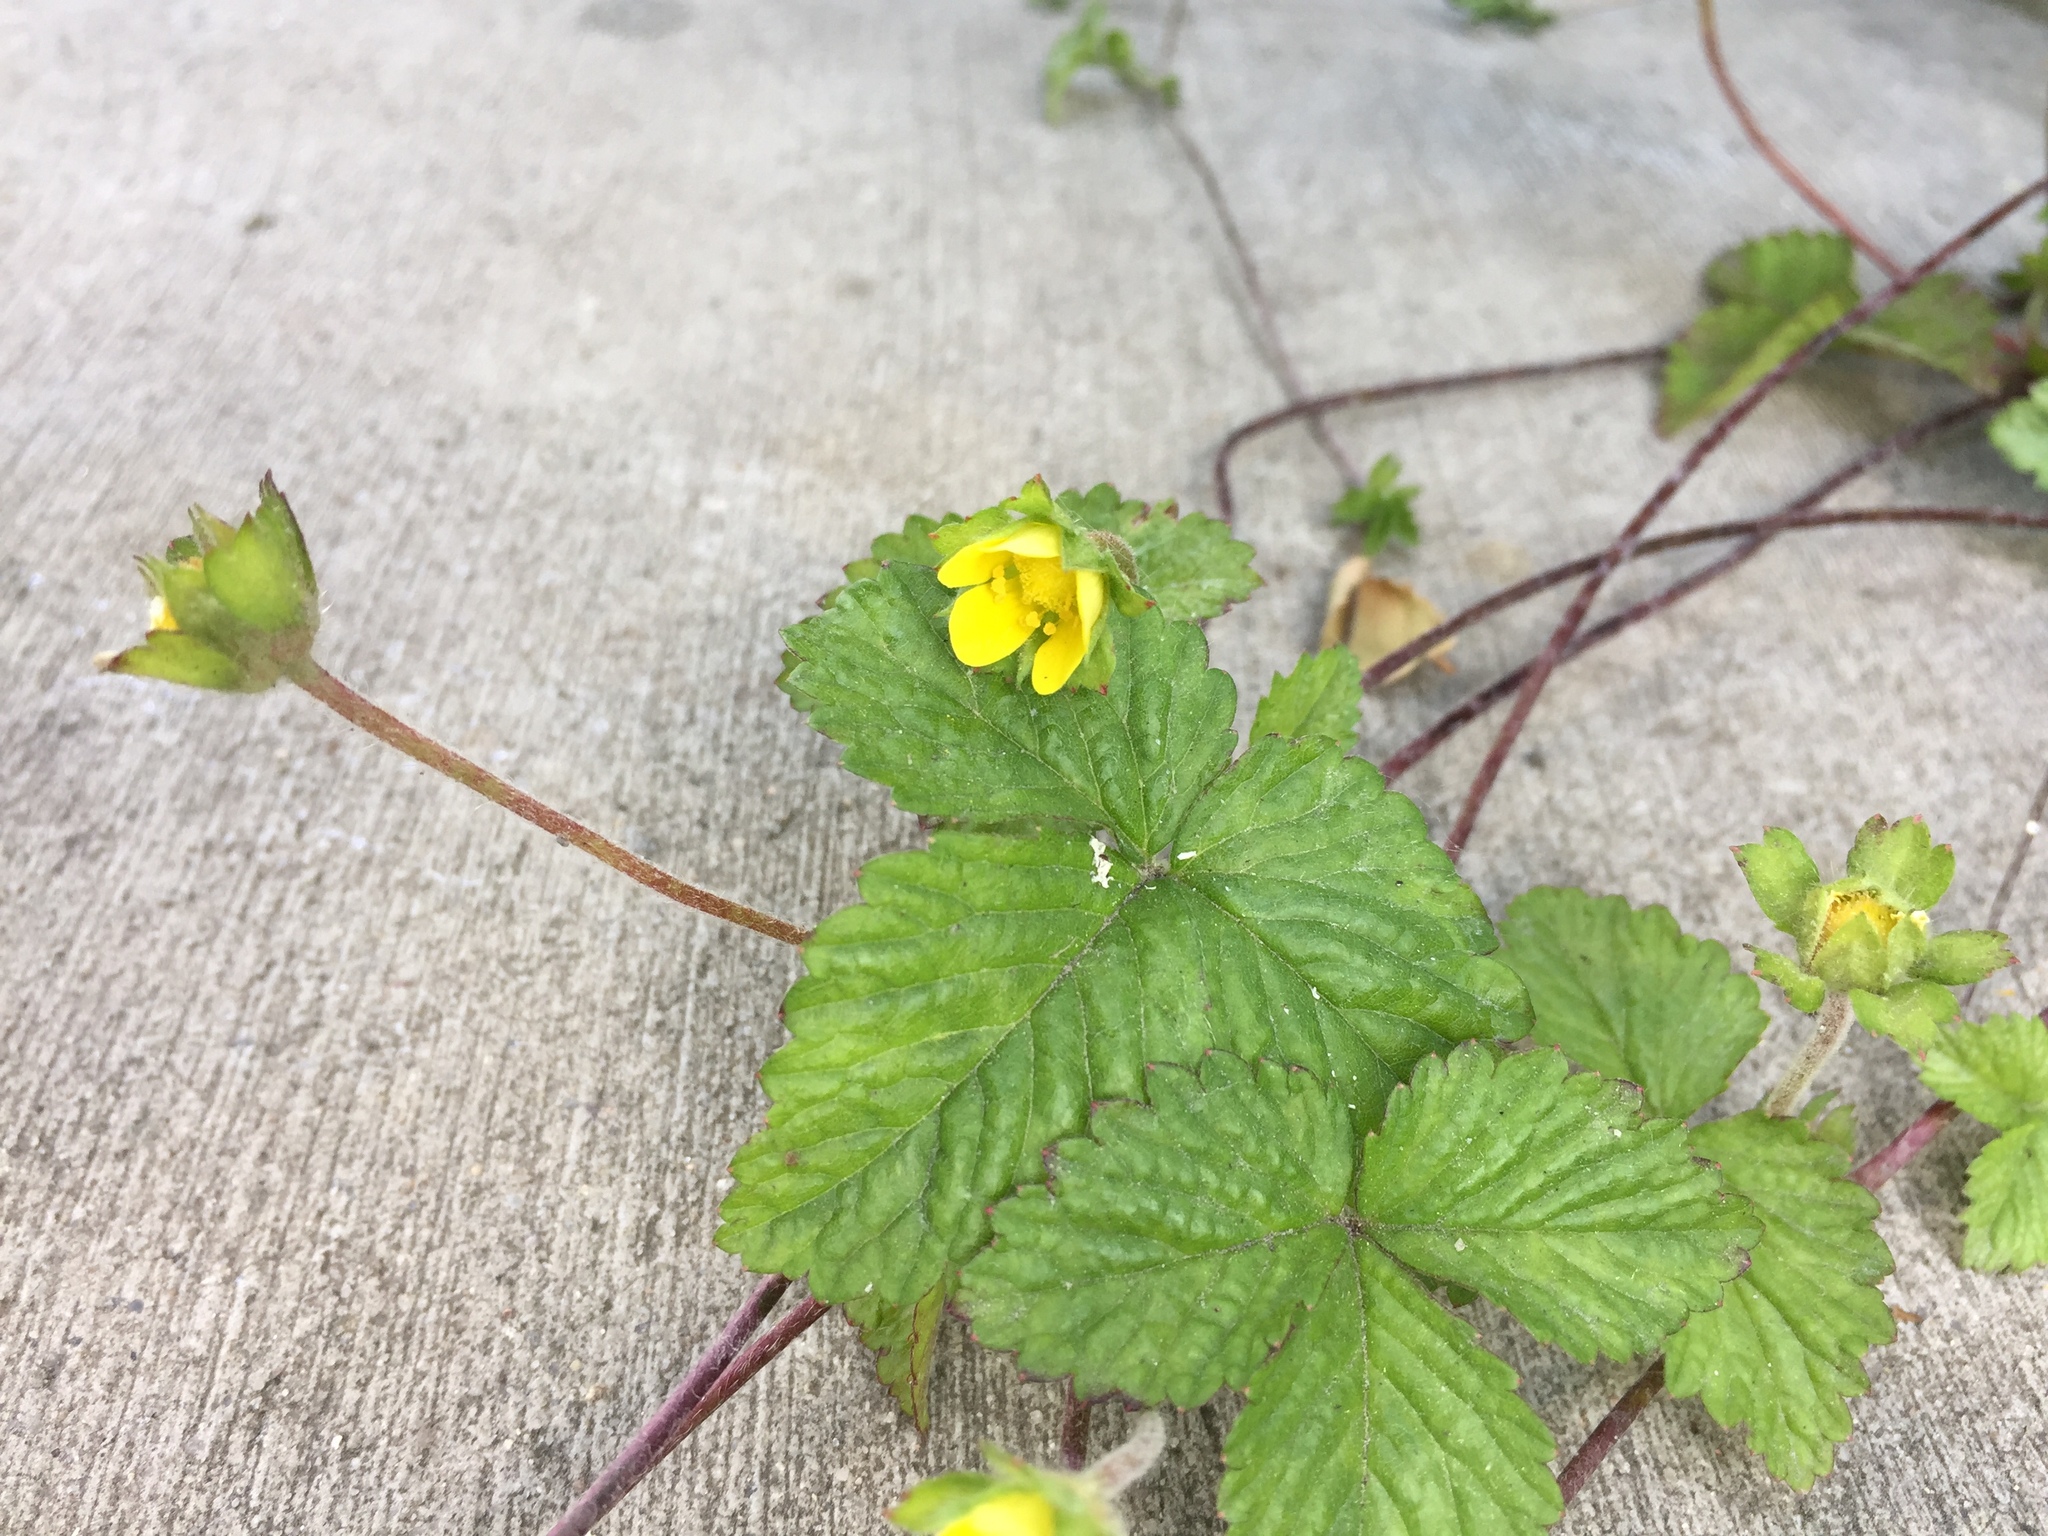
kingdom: Plantae
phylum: Tracheophyta
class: Magnoliopsida
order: Rosales
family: Rosaceae
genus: Potentilla
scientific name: Potentilla indica
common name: Yellow-flowered strawberry
